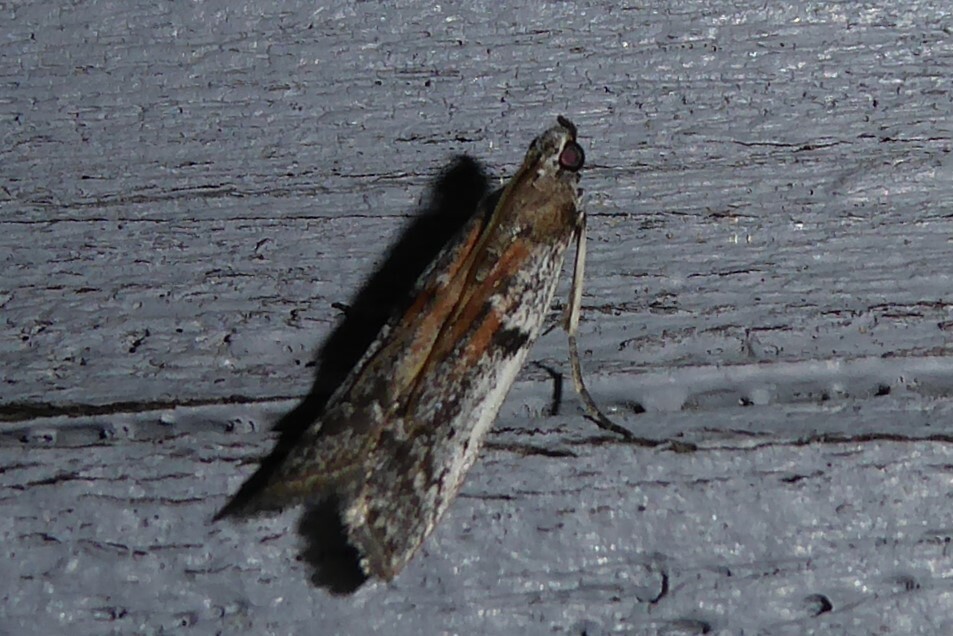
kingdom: Animalia
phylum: Arthropoda
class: Insecta
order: Lepidoptera
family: Pyralidae
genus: Patagoniodes
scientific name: Patagoniodes farinaria
